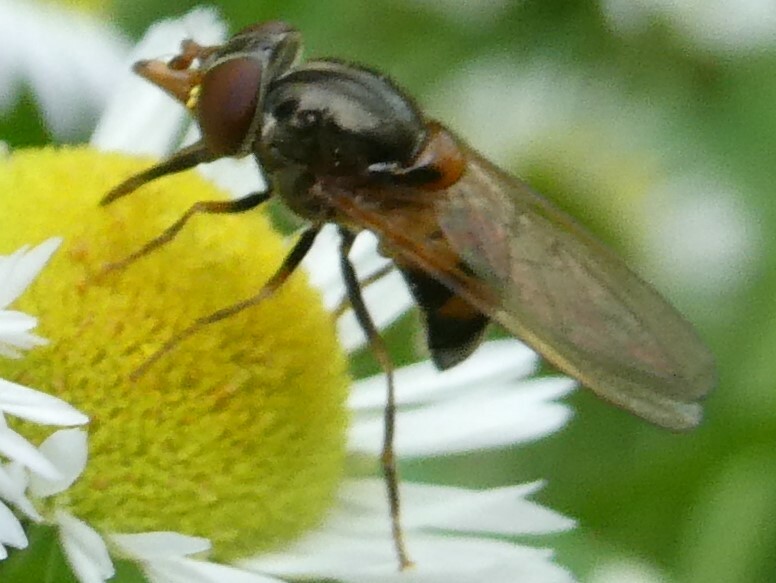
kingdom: Animalia
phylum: Arthropoda
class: Insecta
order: Diptera
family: Syrphidae
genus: Rhingia
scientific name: Rhingia nasica
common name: American snout fly
